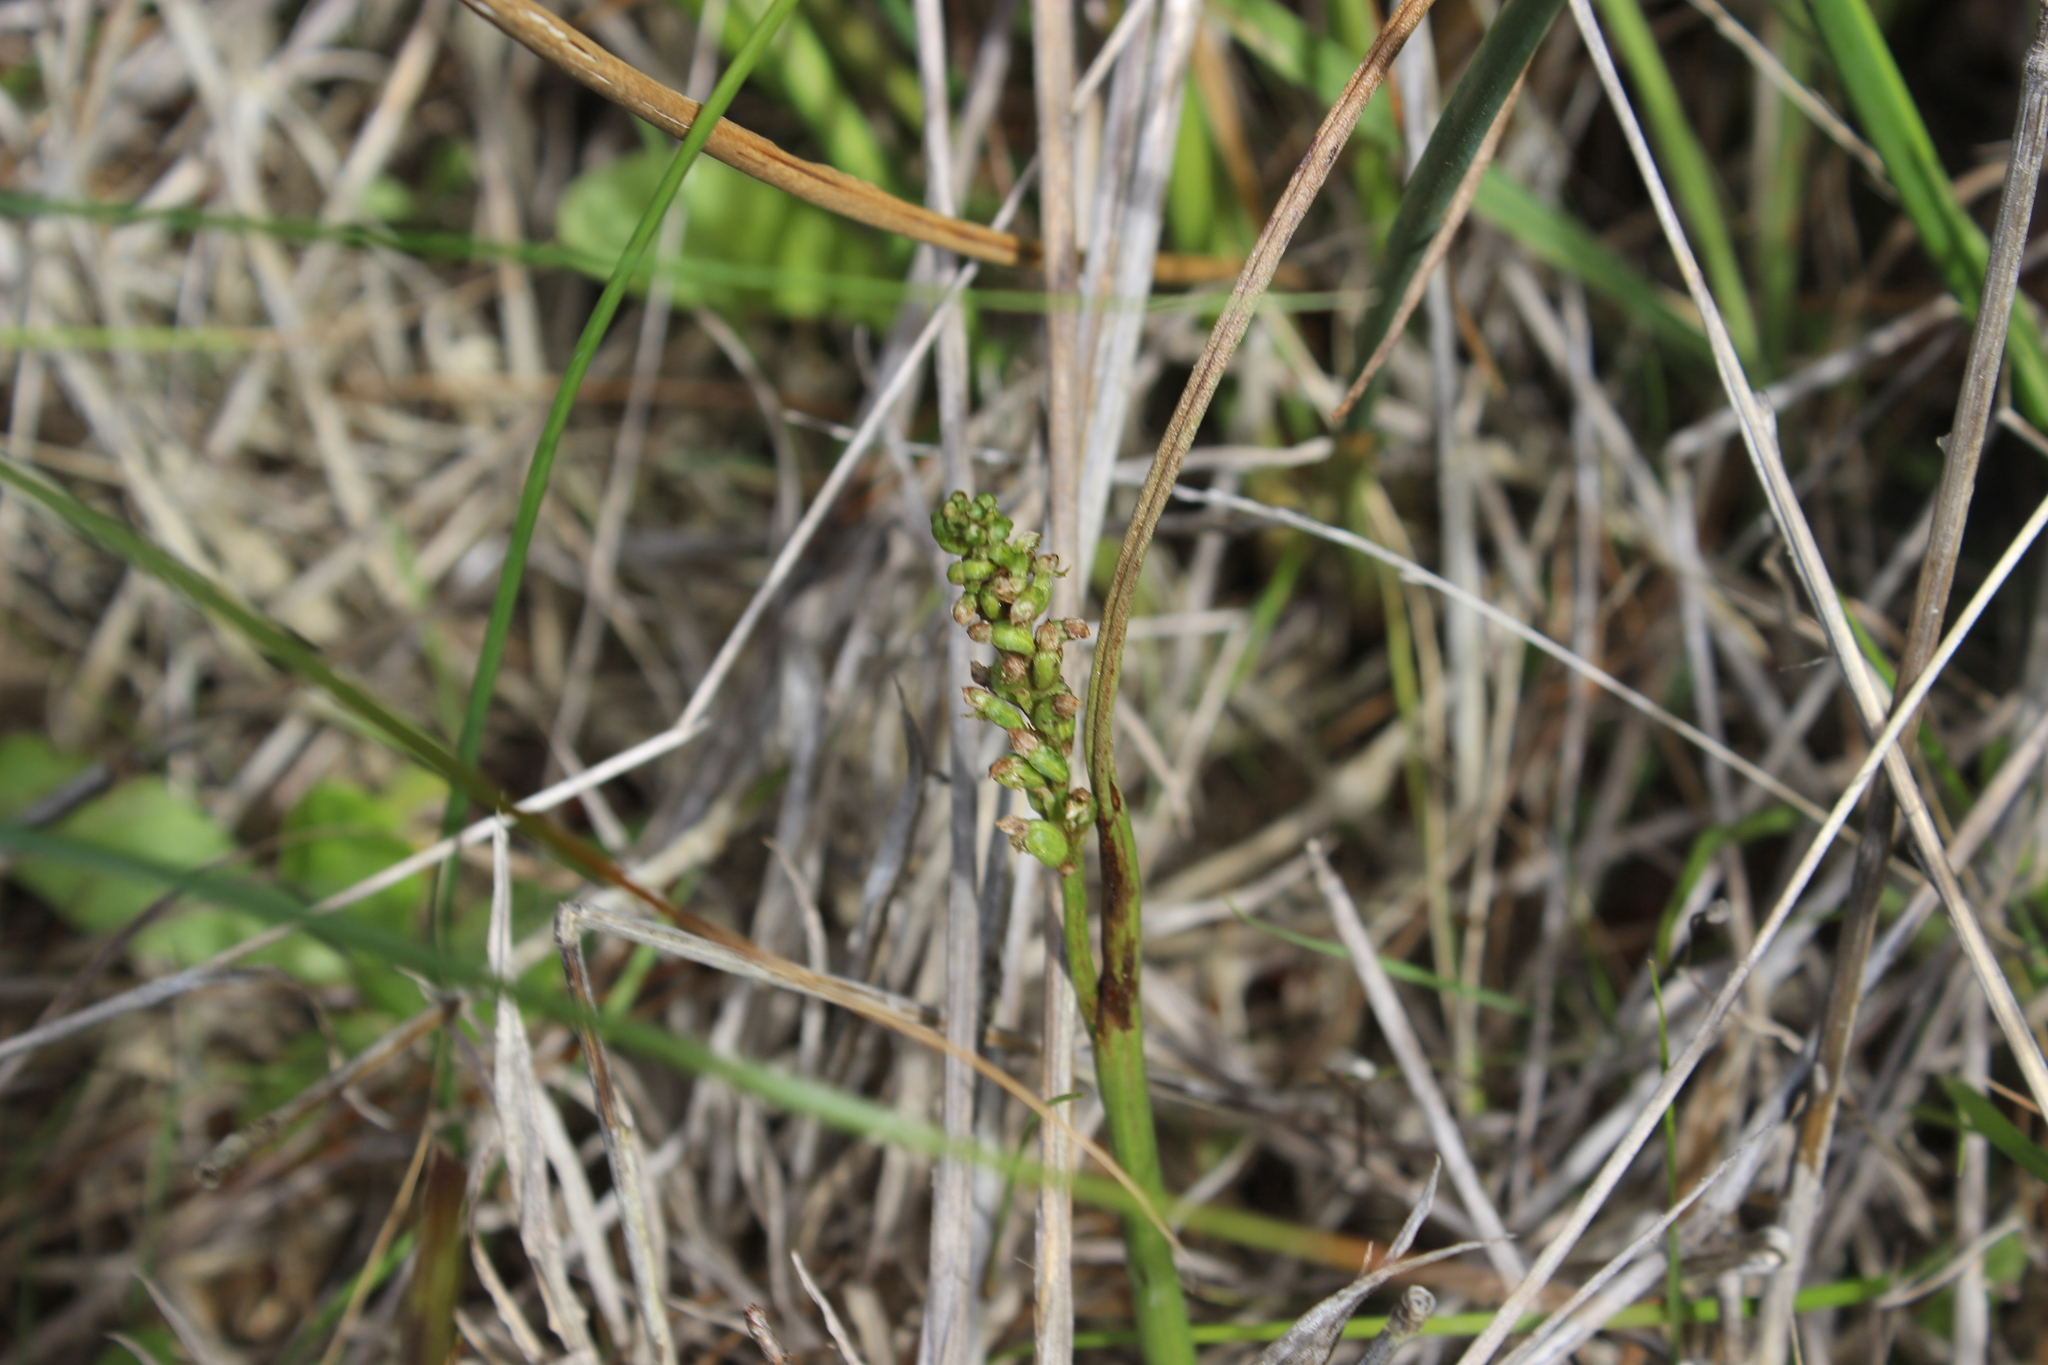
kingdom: Plantae
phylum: Tracheophyta
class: Liliopsida
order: Asparagales
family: Orchidaceae
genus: Microtis
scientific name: Microtis unifolia
